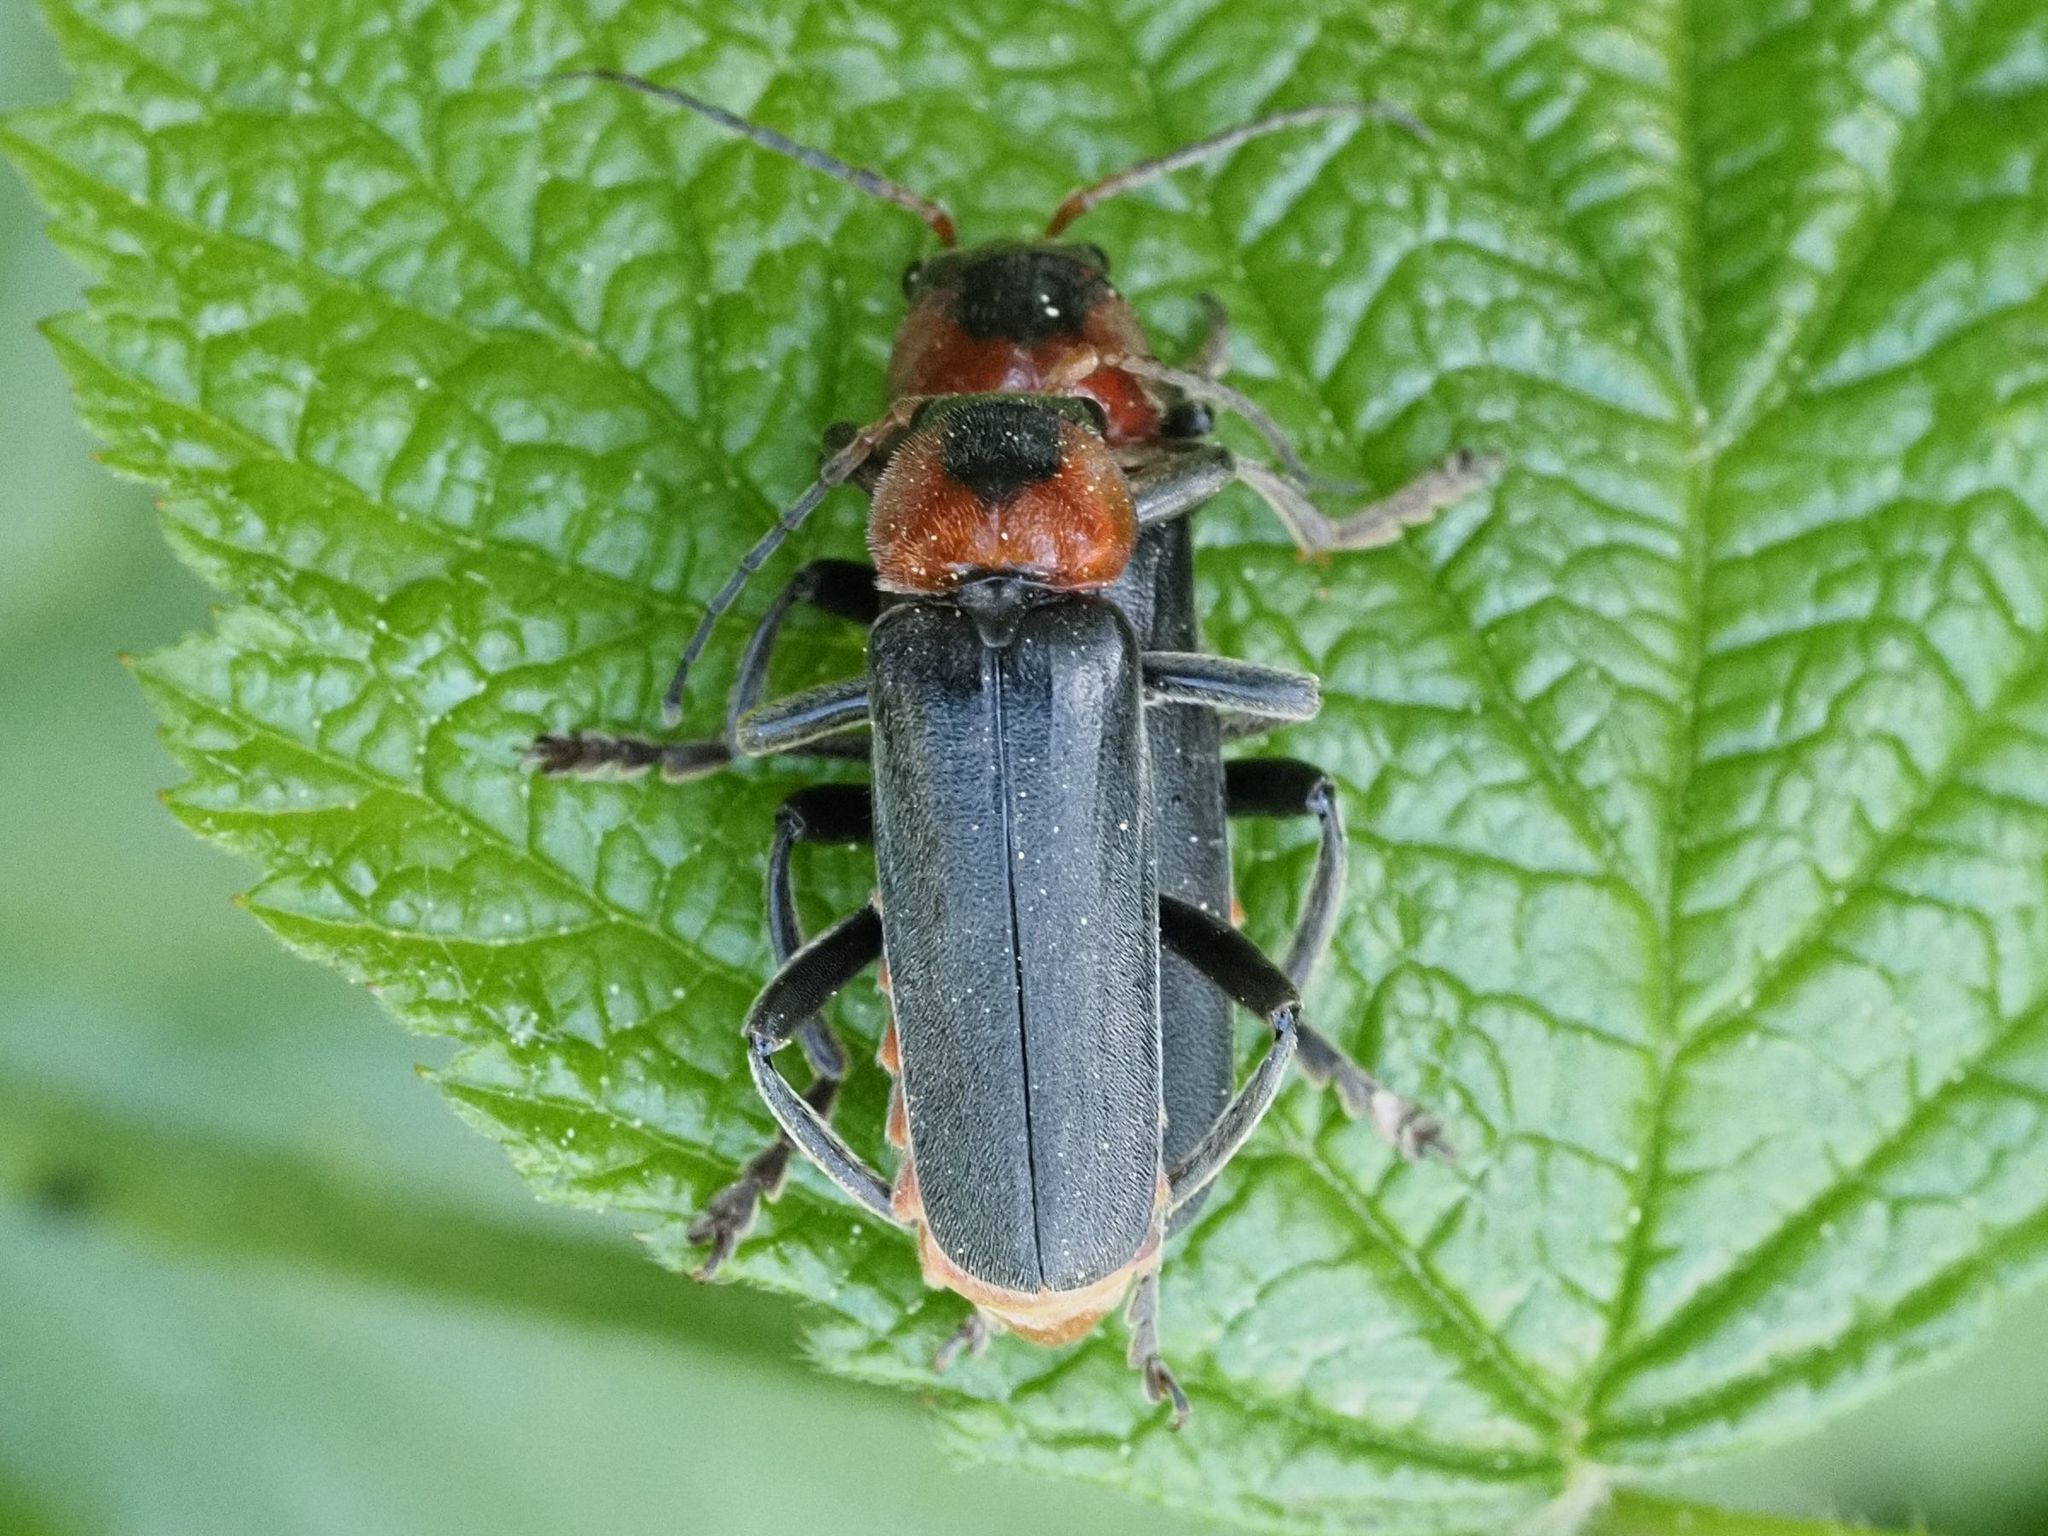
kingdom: Animalia
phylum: Arthropoda
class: Insecta
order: Coleoptera
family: Cantharidae
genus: Cantharis
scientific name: Cantharis fusca
